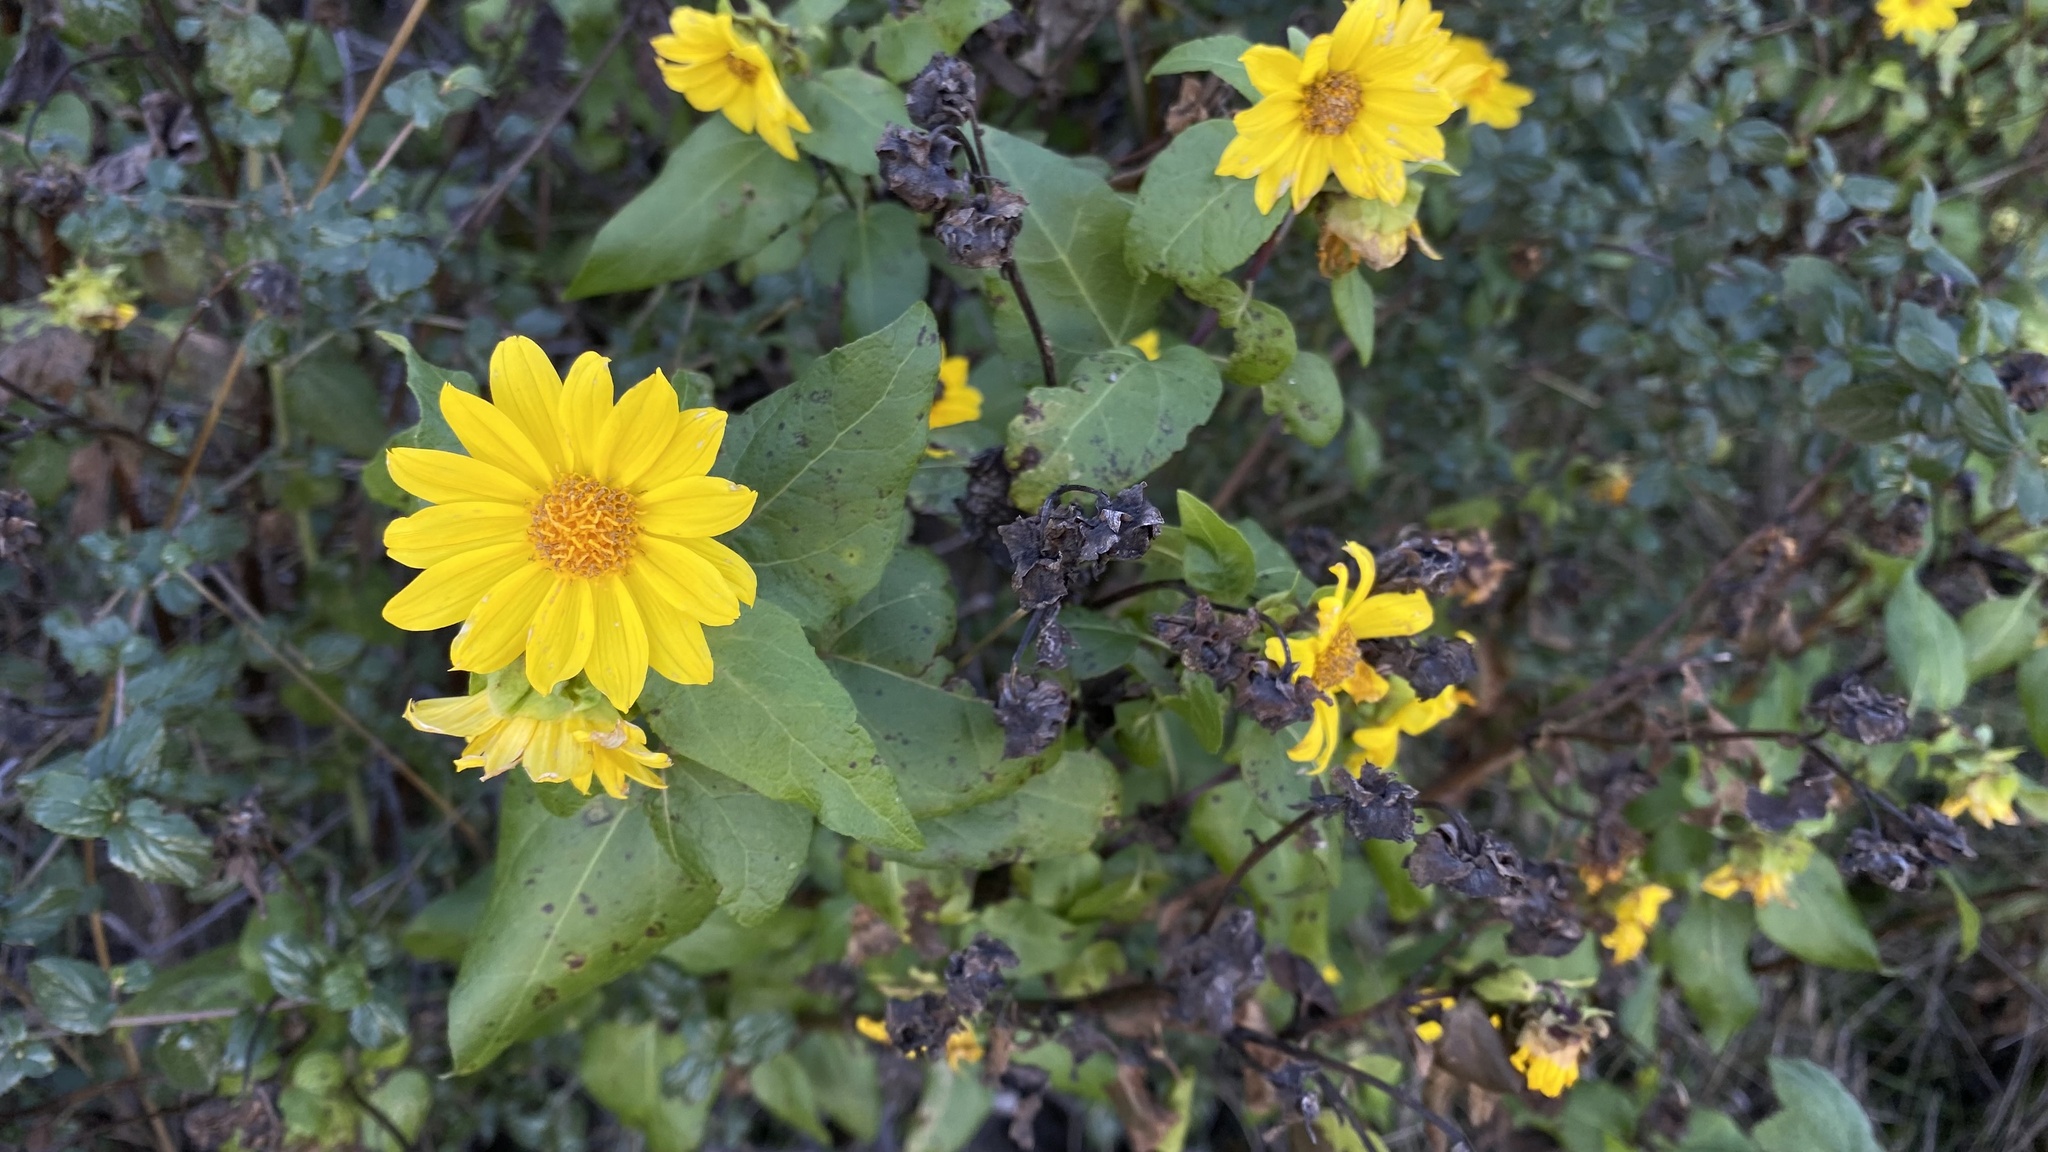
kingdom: Plantae
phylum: Tracheophyta
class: Magnoliopsida
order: Asterales
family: Asteraceae
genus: Venegasia
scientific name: Venegasia carpesioides
